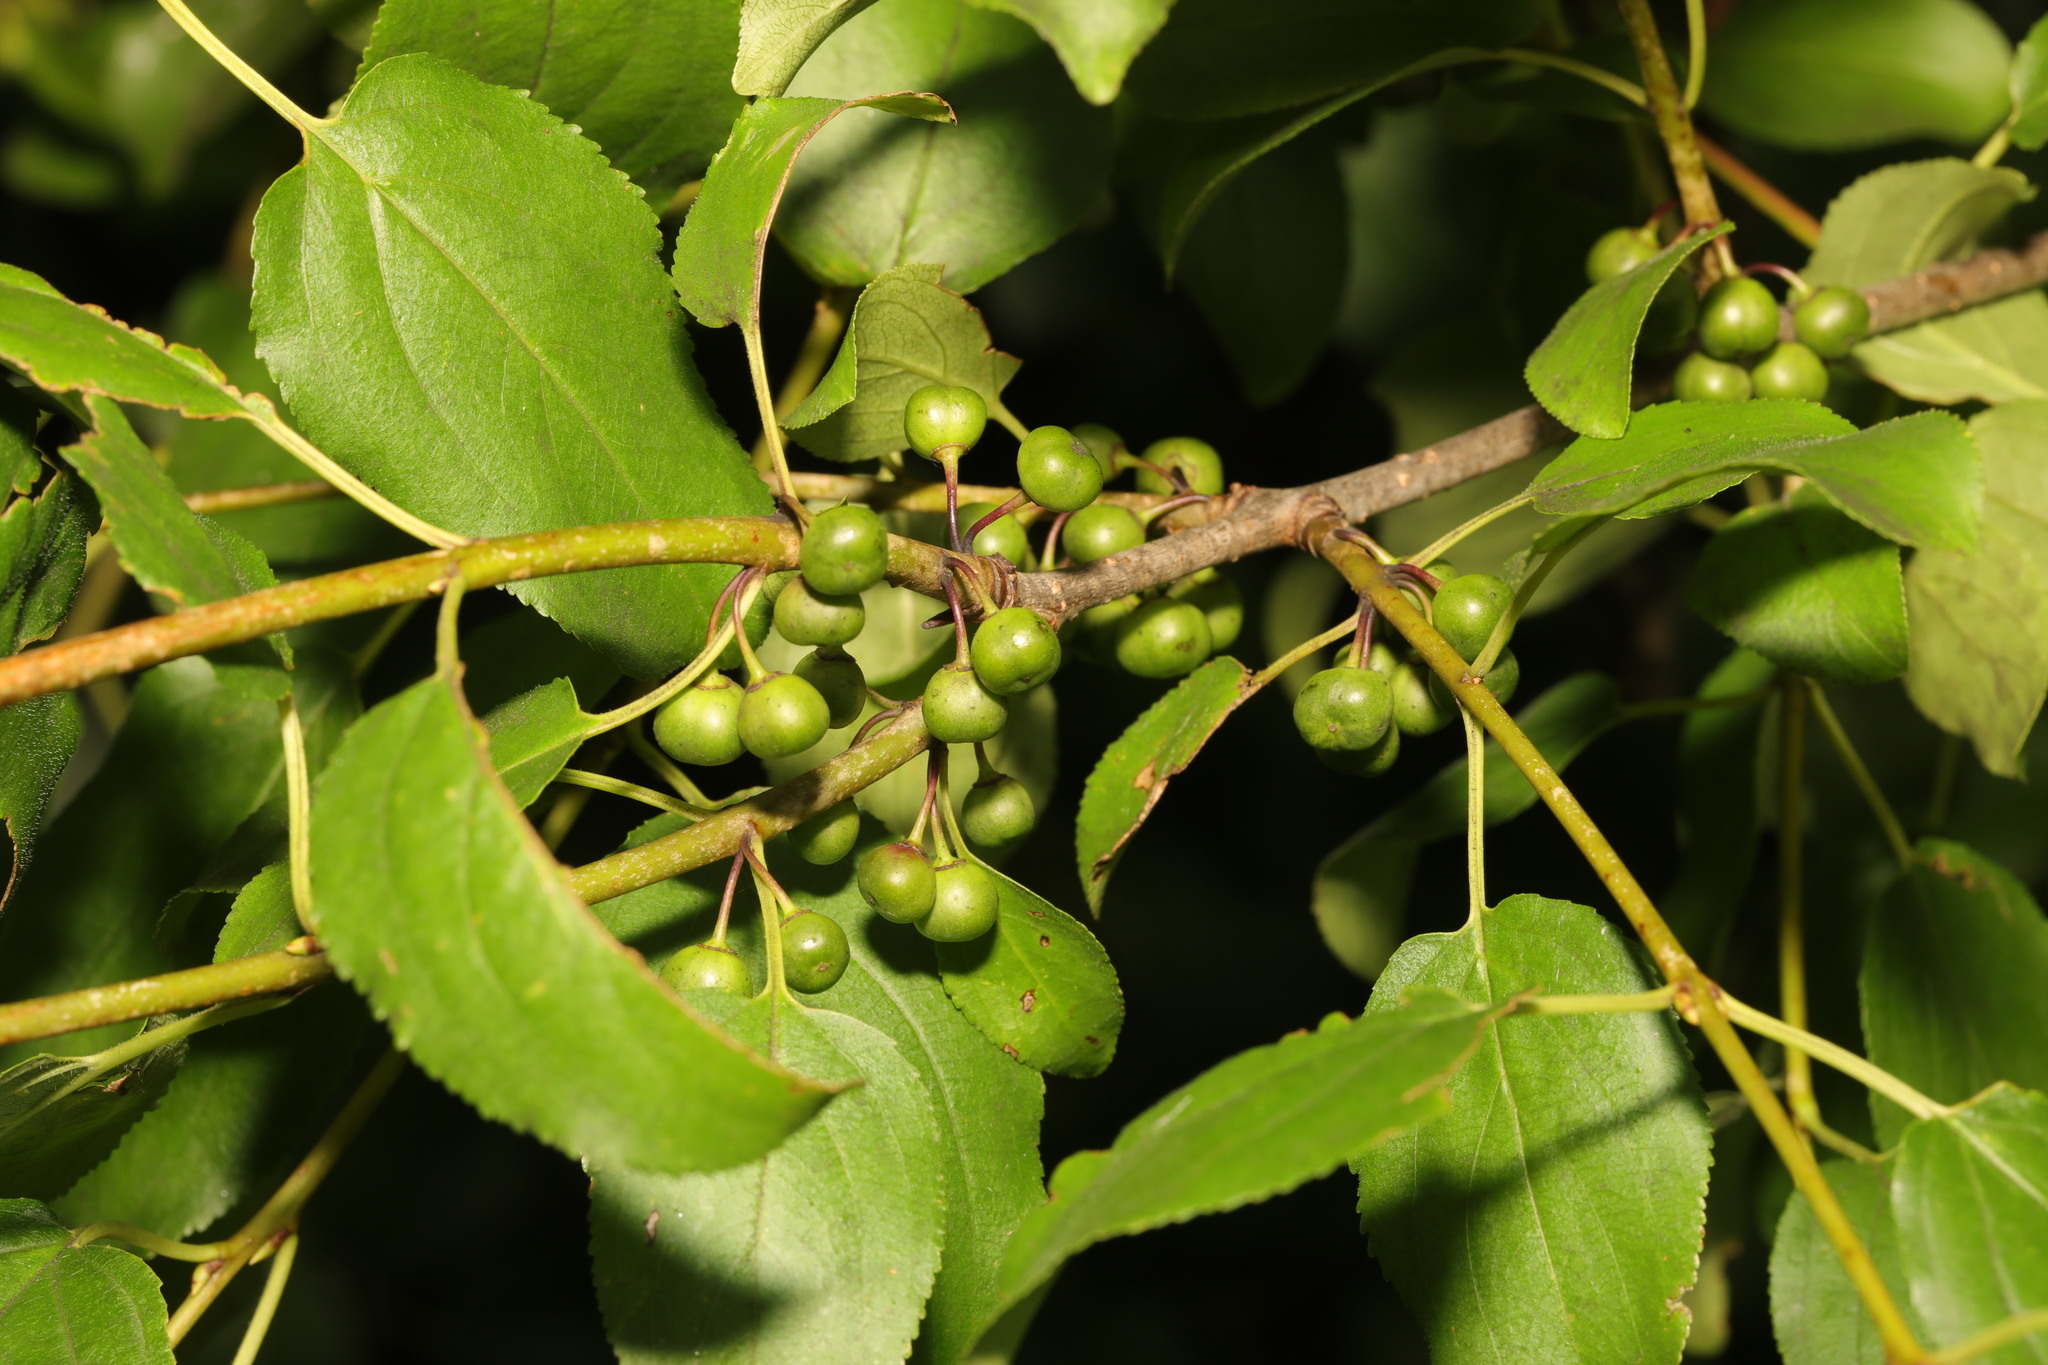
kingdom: Plantae
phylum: Tracheophyta
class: Magnoliopsida
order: Rosales
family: Rhamnaceae
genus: Rhamnus
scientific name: Rhamnus cathartica
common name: Common buckthorn
